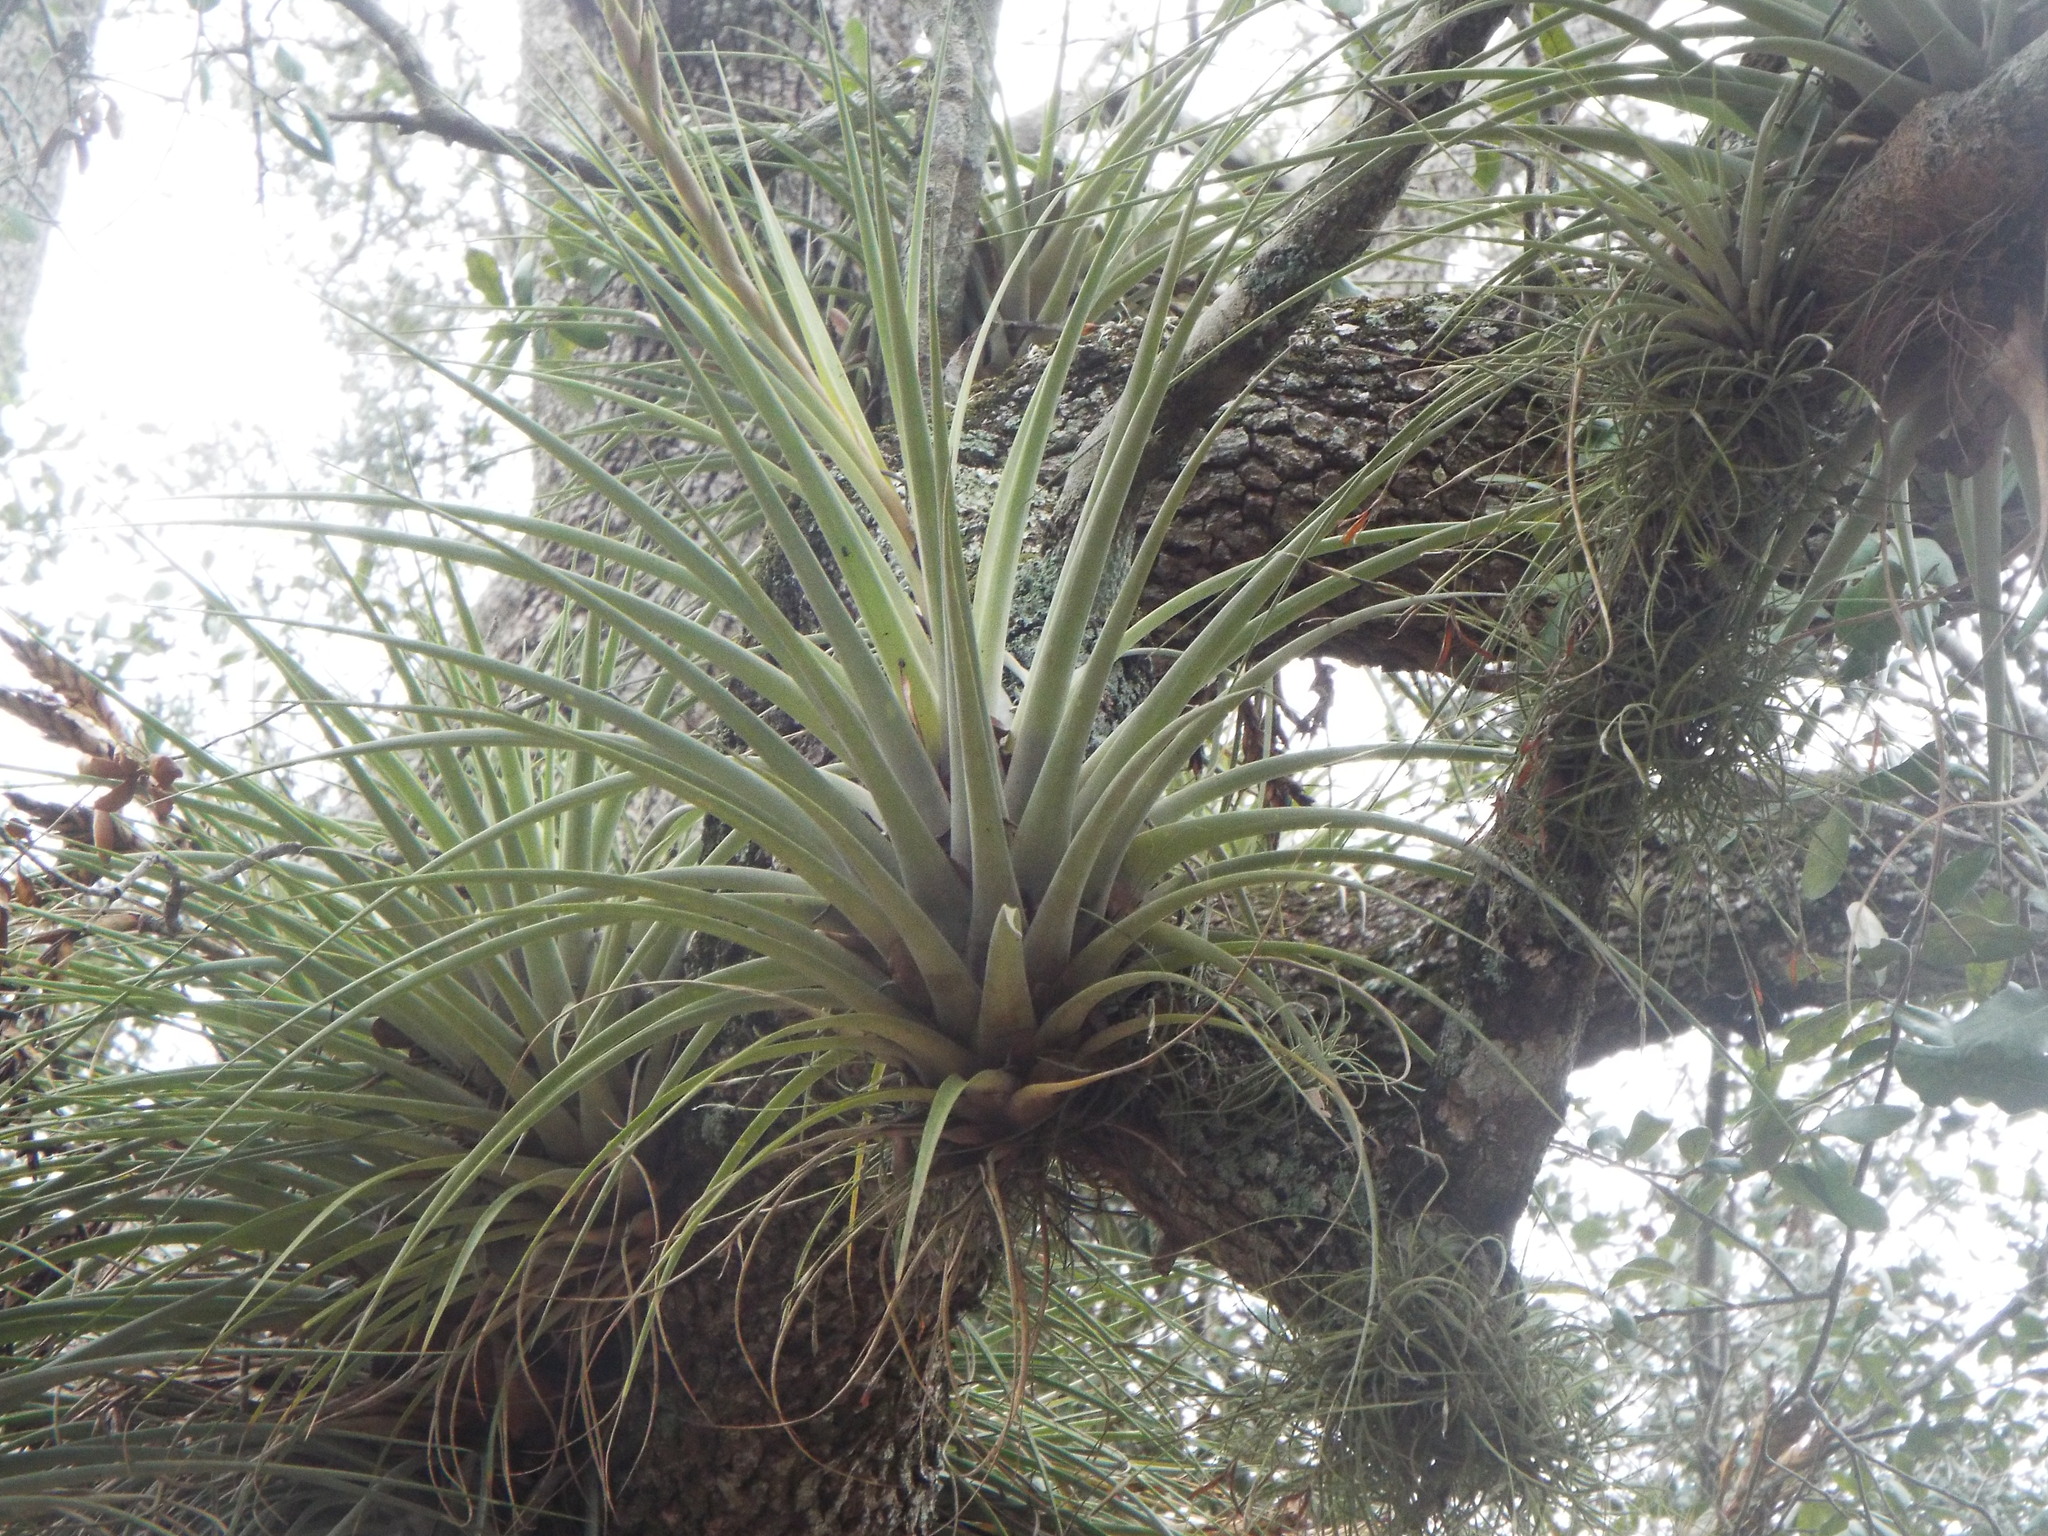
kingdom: Plantae
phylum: Tracheophyta
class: Liliopsida
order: Poales
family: Bromeliaceae
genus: Tillandsia
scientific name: Tillandsia fasciculata
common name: Giant airplant
